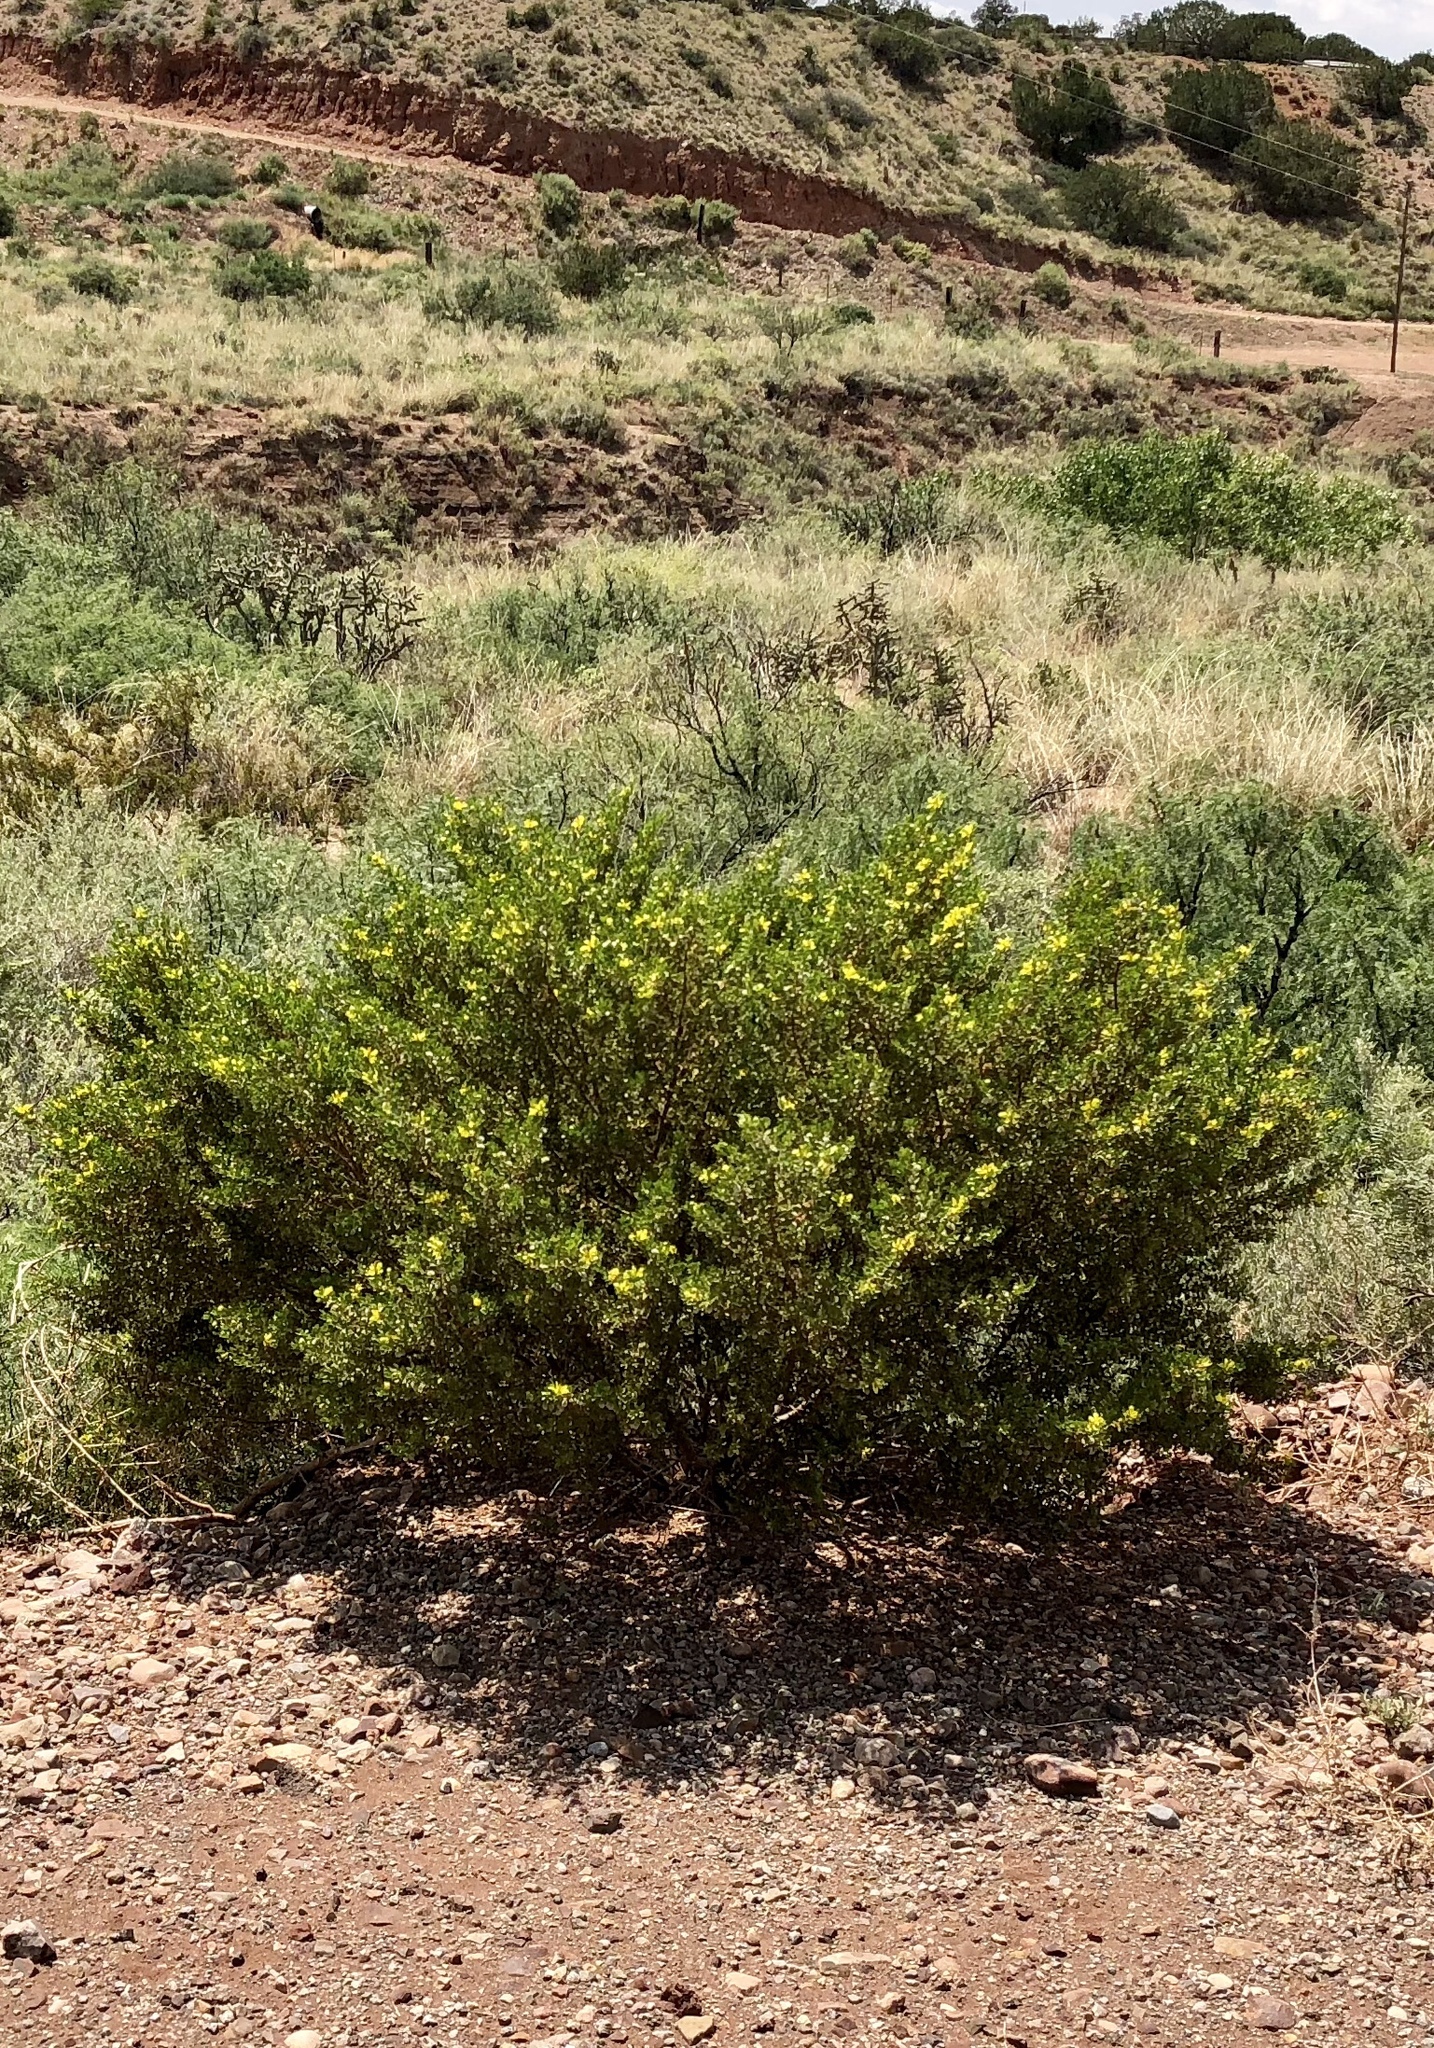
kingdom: Plantae
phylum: Tracheophyta
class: Magnoliopsida
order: Zygophyllales
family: Zygophyllaceae
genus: Larrea
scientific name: Larrea tridentata
